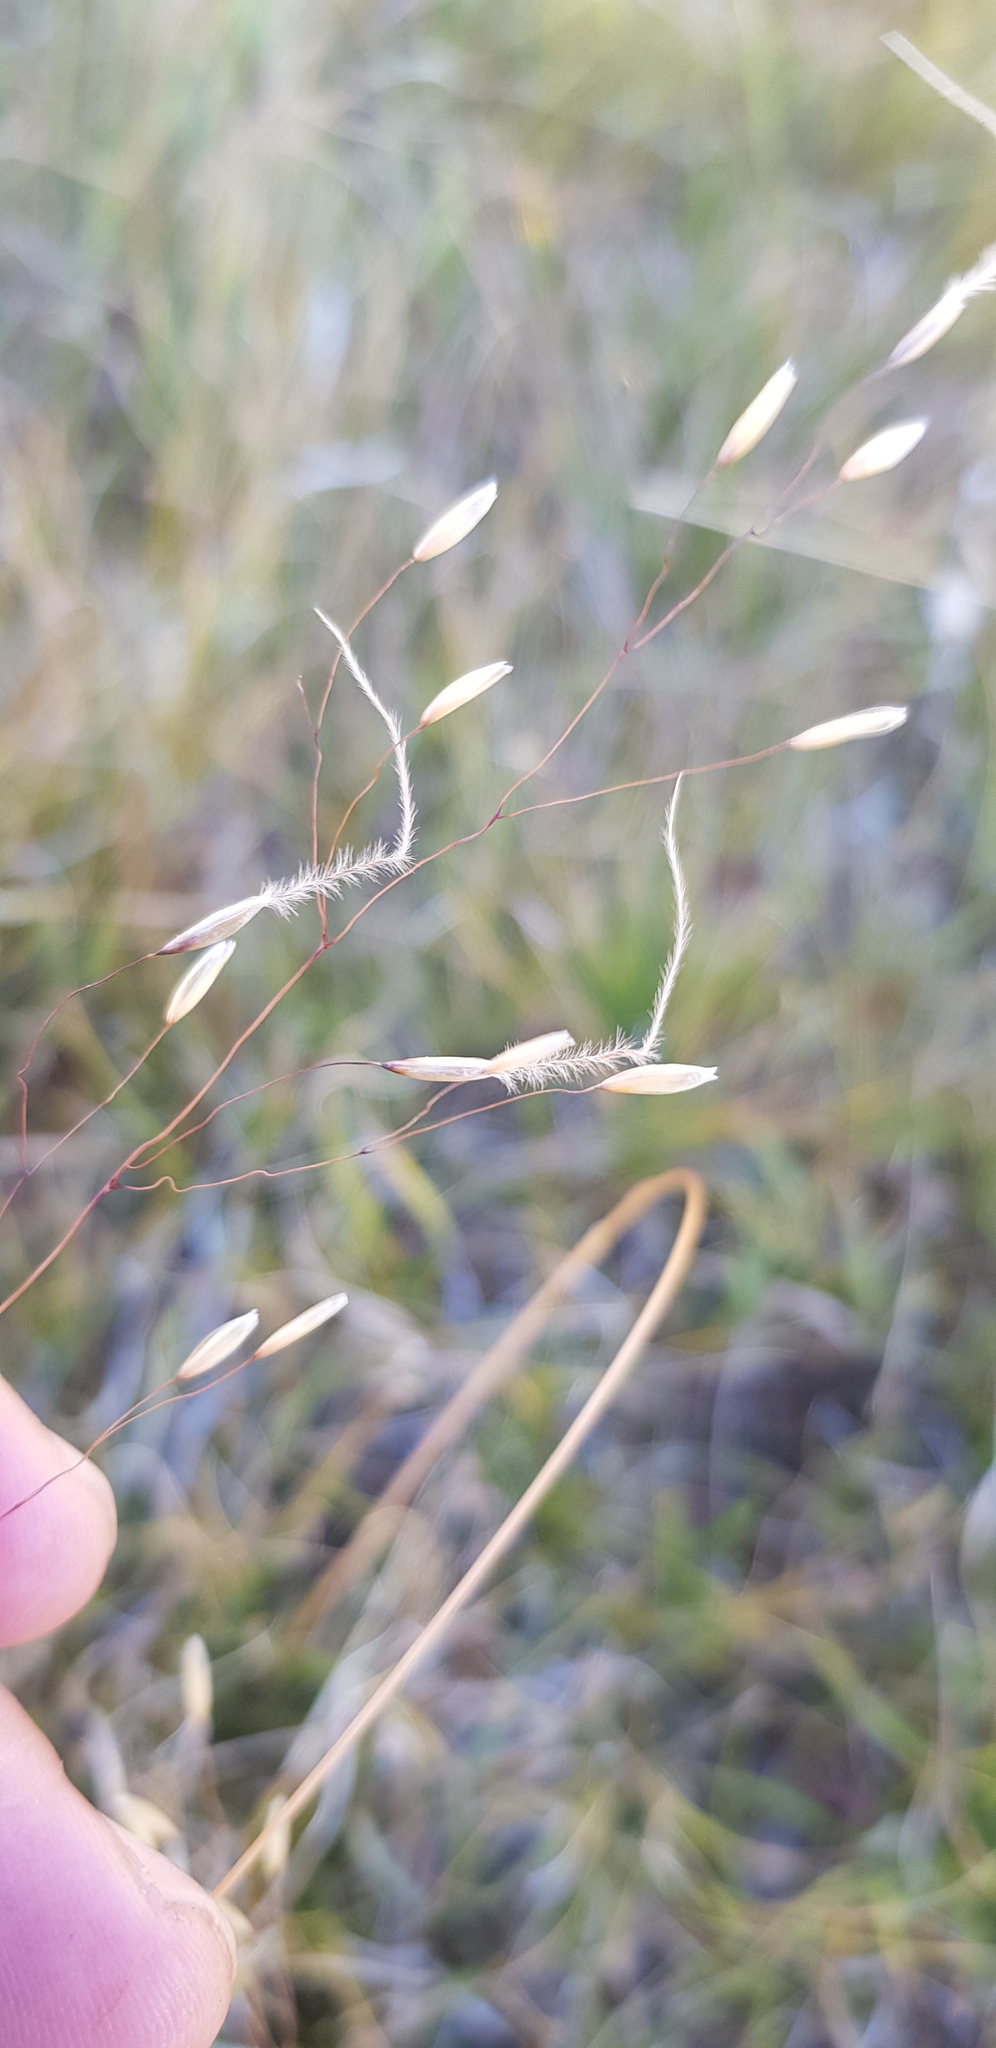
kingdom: Plantae
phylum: Tracheophyta
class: Liliopsida
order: Poales
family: Poaceae
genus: Ptilagrostis
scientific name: Ptilagrostis mongholica
